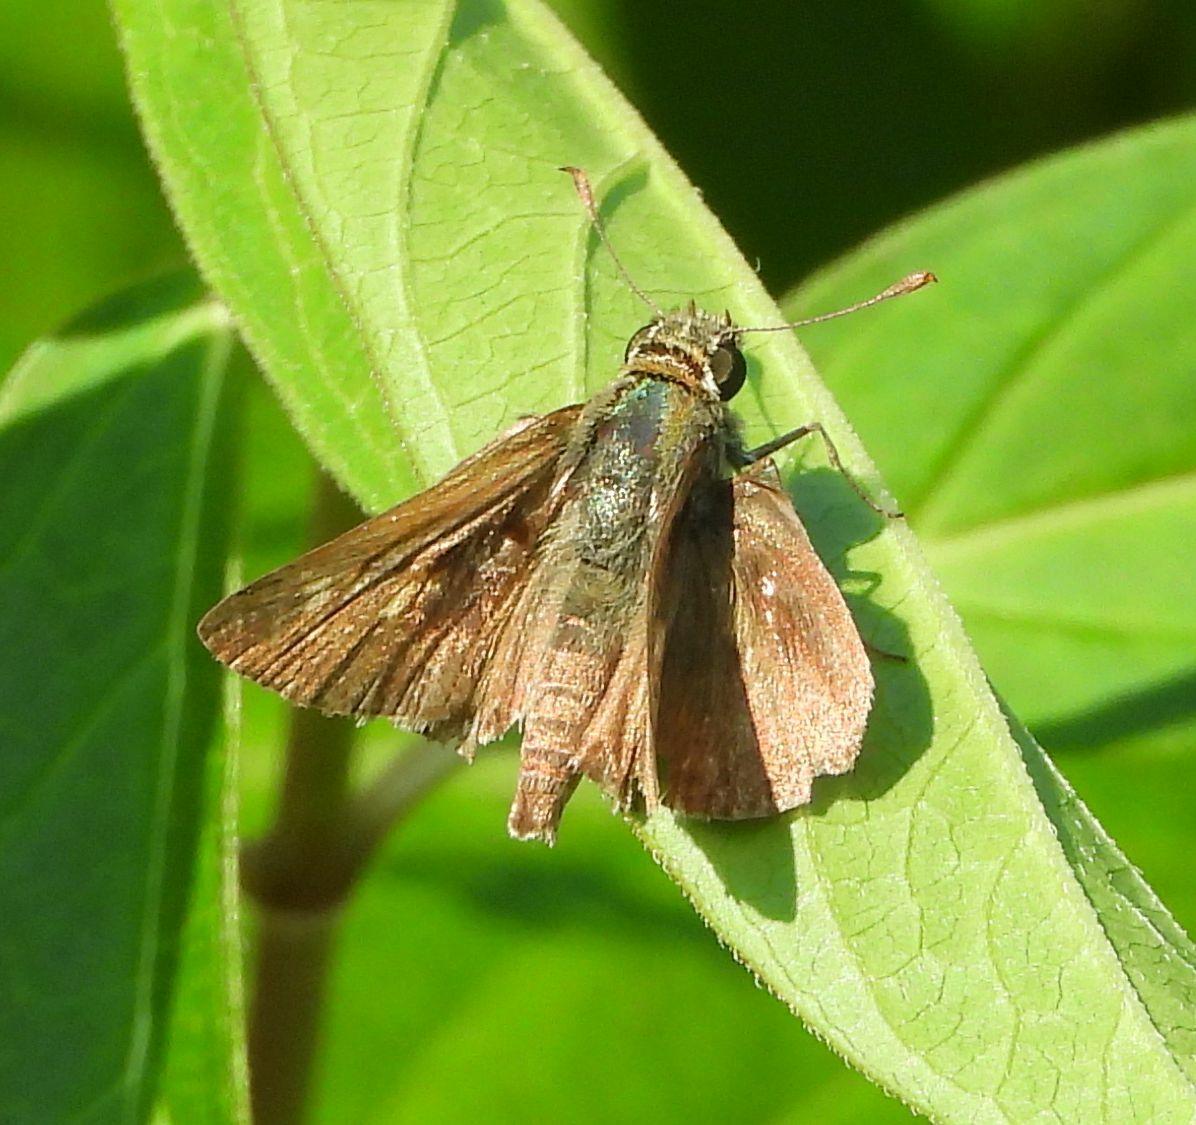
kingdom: Animalia
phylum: Arthropoda
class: Insecta
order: Lepidoptera
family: Hesperiidae
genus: Polites
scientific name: Polites egeremet
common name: Northern broken-dash
